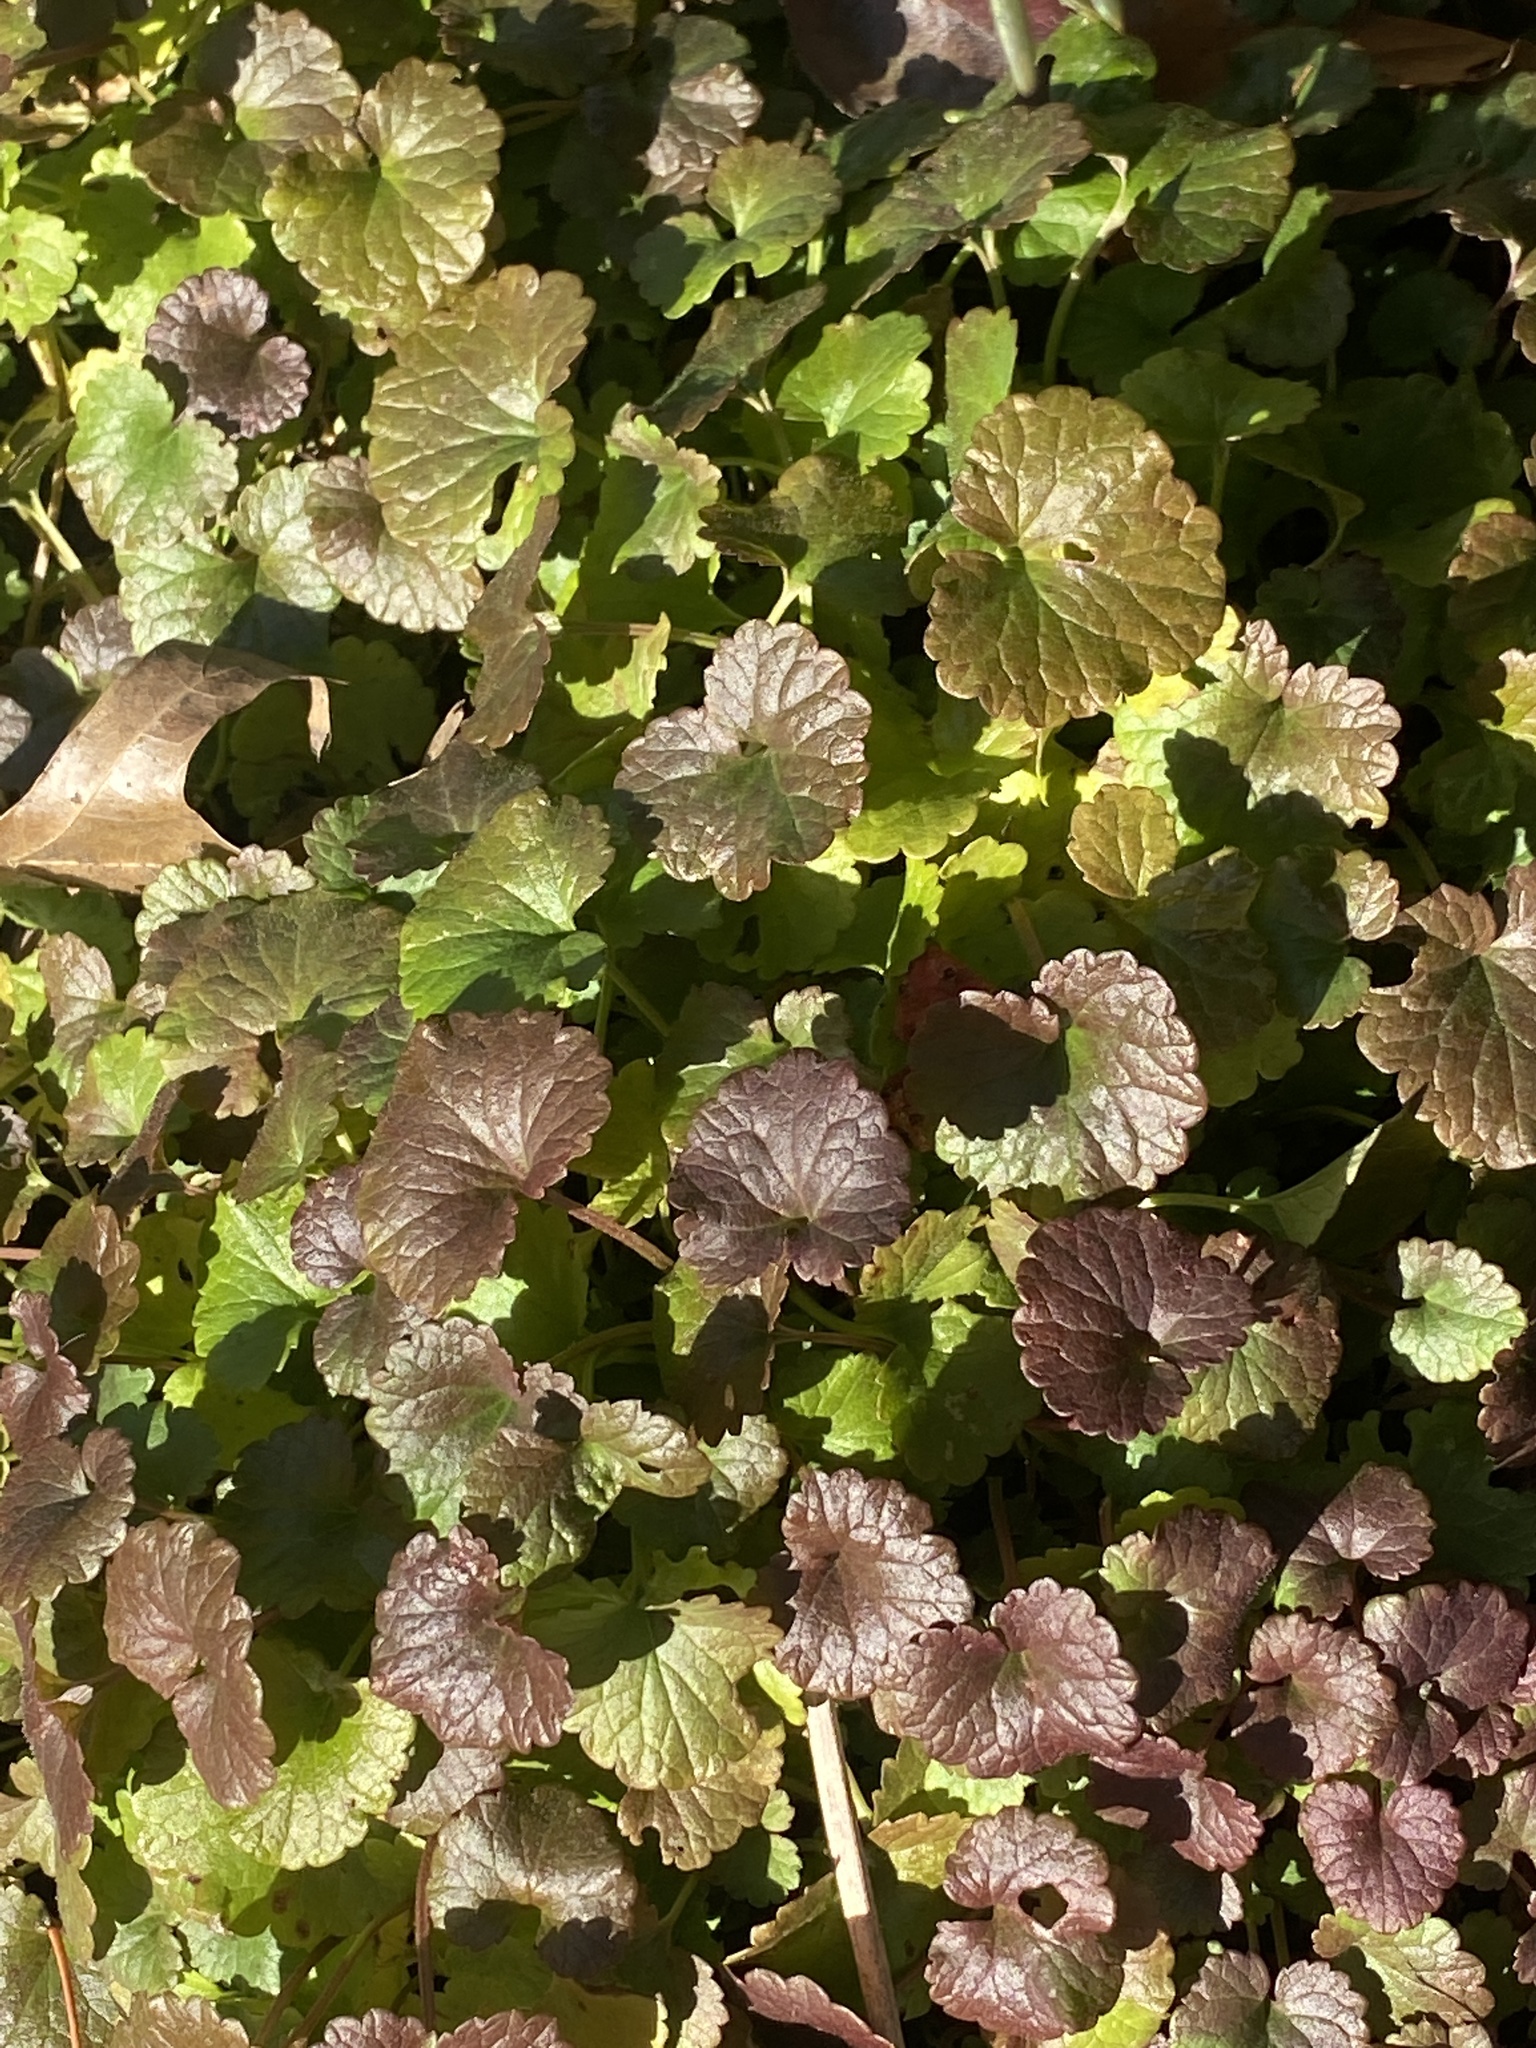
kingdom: Plantae
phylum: Tracheophyta
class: Magnoliopsida
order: Lamiales
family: Lamiaceae
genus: Glechoma
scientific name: Glechoma hederacea
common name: Ground ivy
